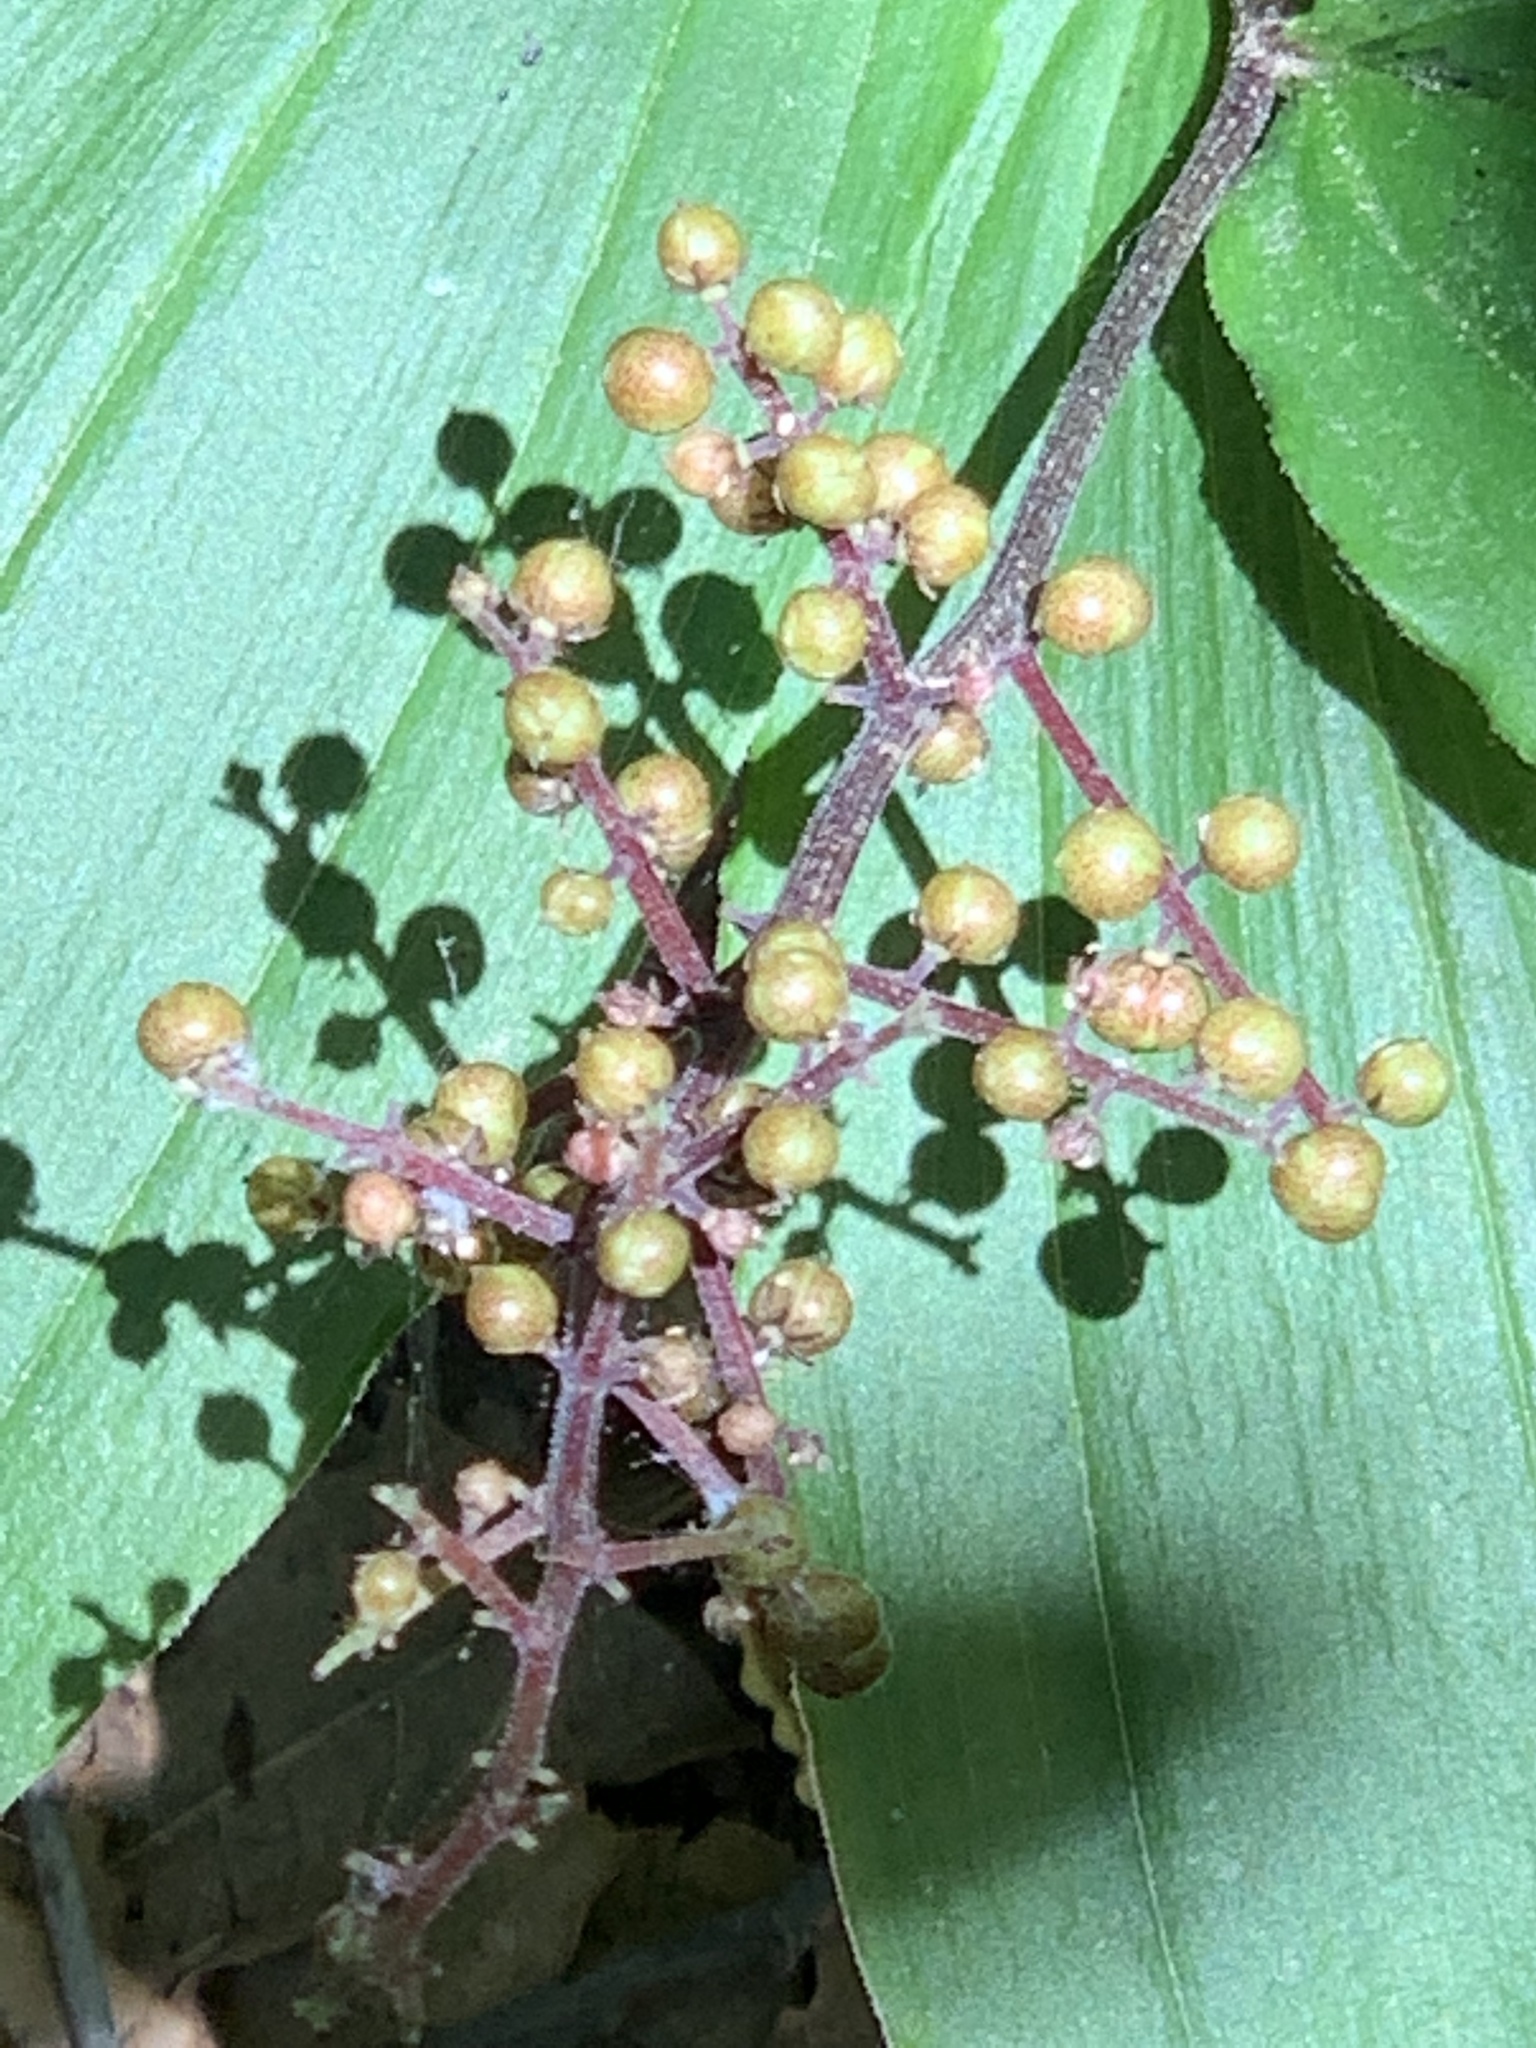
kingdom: Plantae
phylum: Tracheophyta
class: Liliopsida
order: Asparagales
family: Asparagaceae
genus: Maianthemum
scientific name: Maianthemum racemosum
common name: False spikenard
